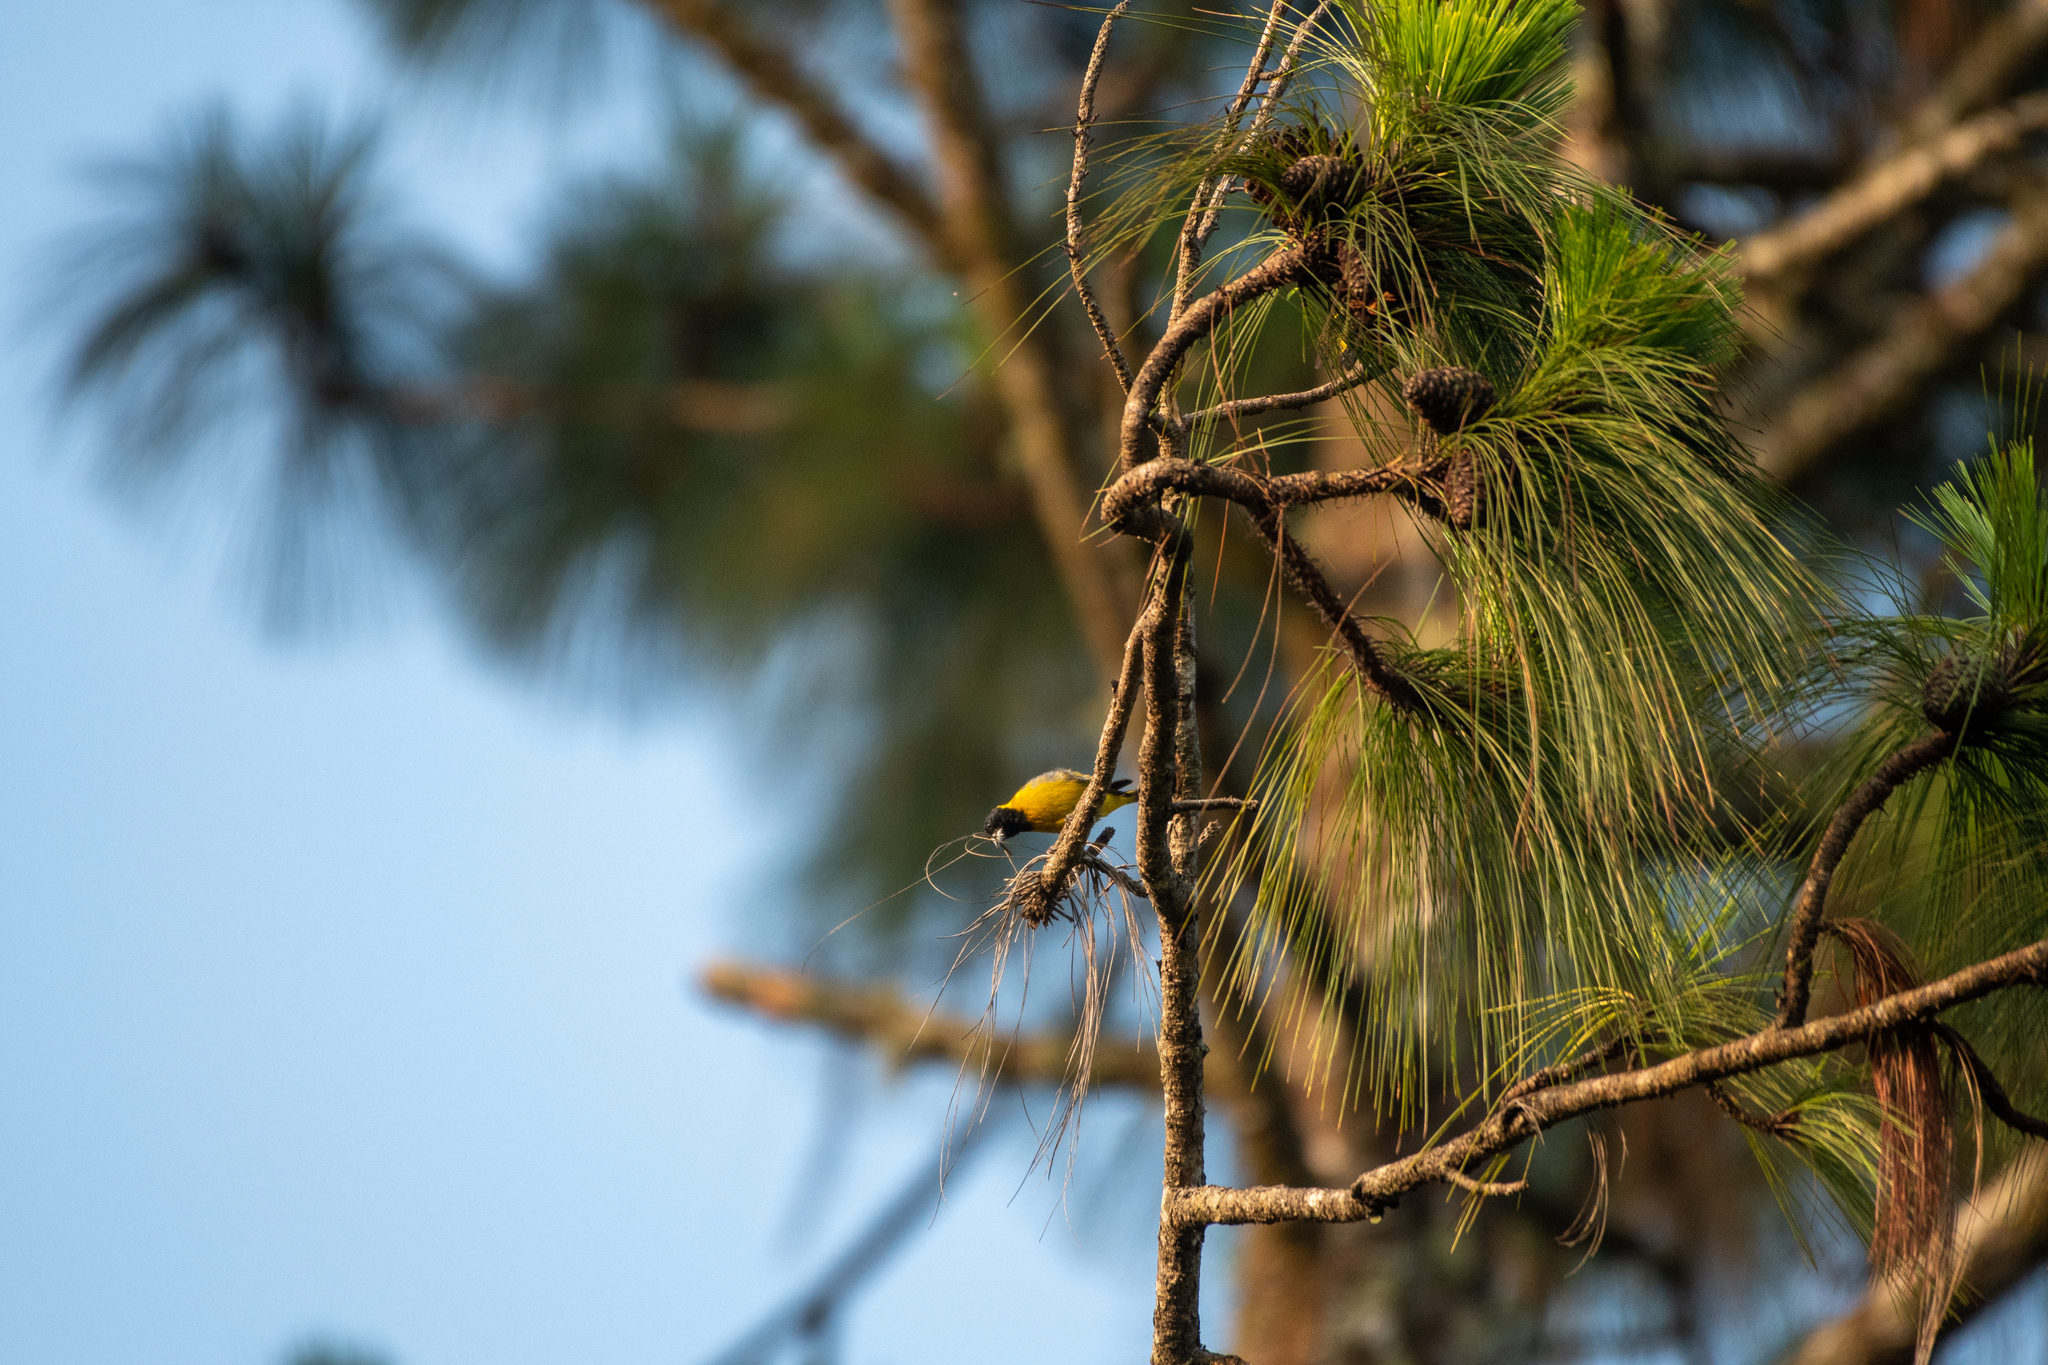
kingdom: Animalia
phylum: Chordata
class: Aves
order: Passeriformes
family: Fringillidae
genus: Spinus
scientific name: Spinus notatus
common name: Black-headed siskin
